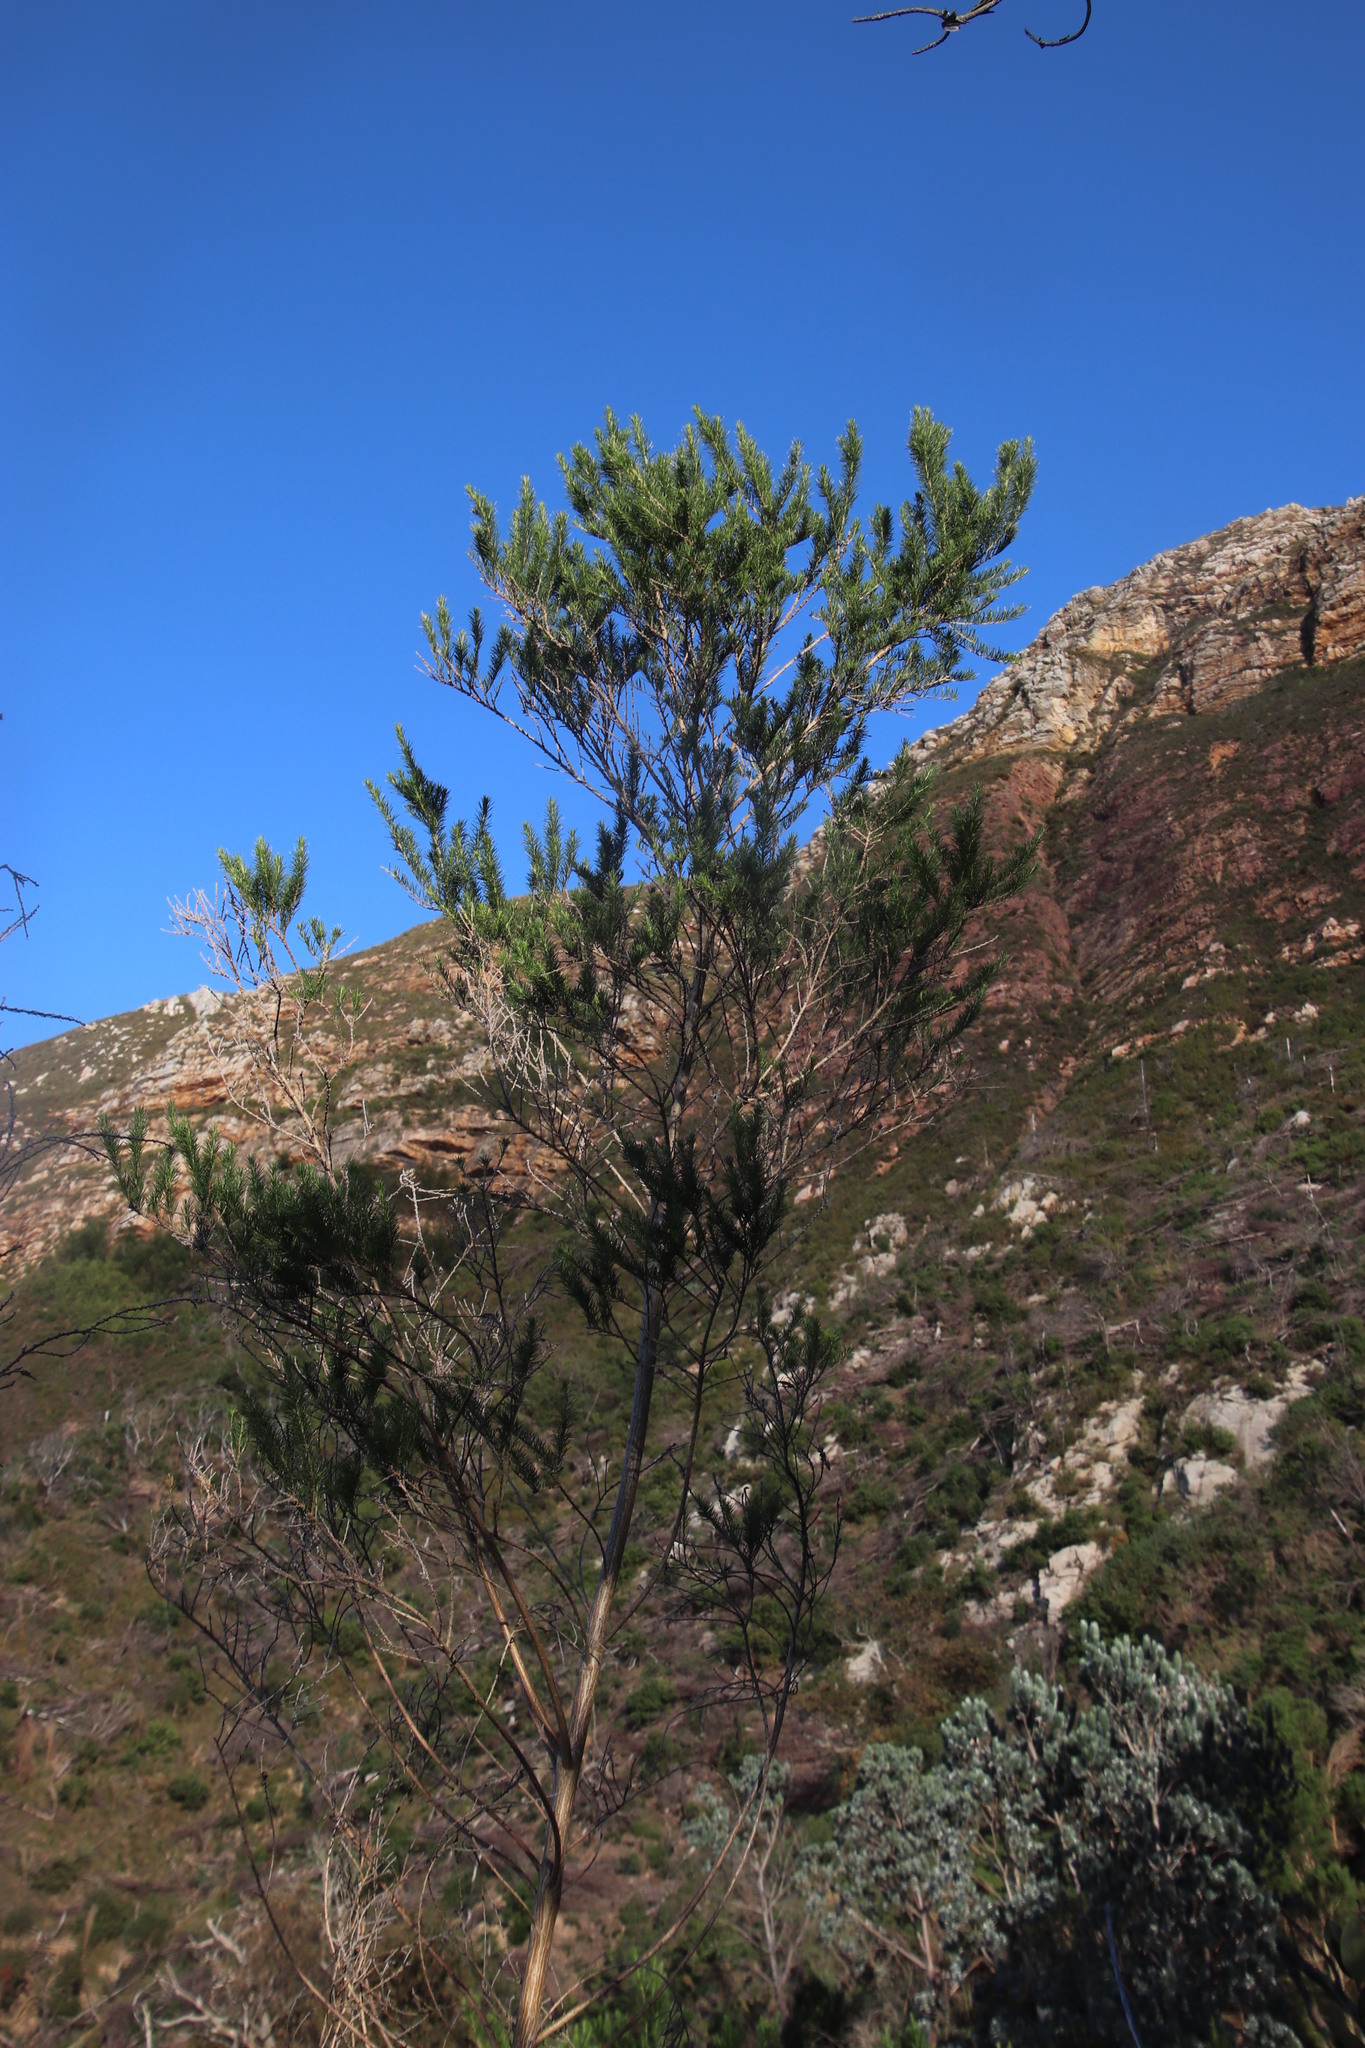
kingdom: Plantae
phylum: Tracheophyta
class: Magnoliopsida
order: Fabales
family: Fabaceae
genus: Aspalathus
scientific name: Aspalathus macrantha
